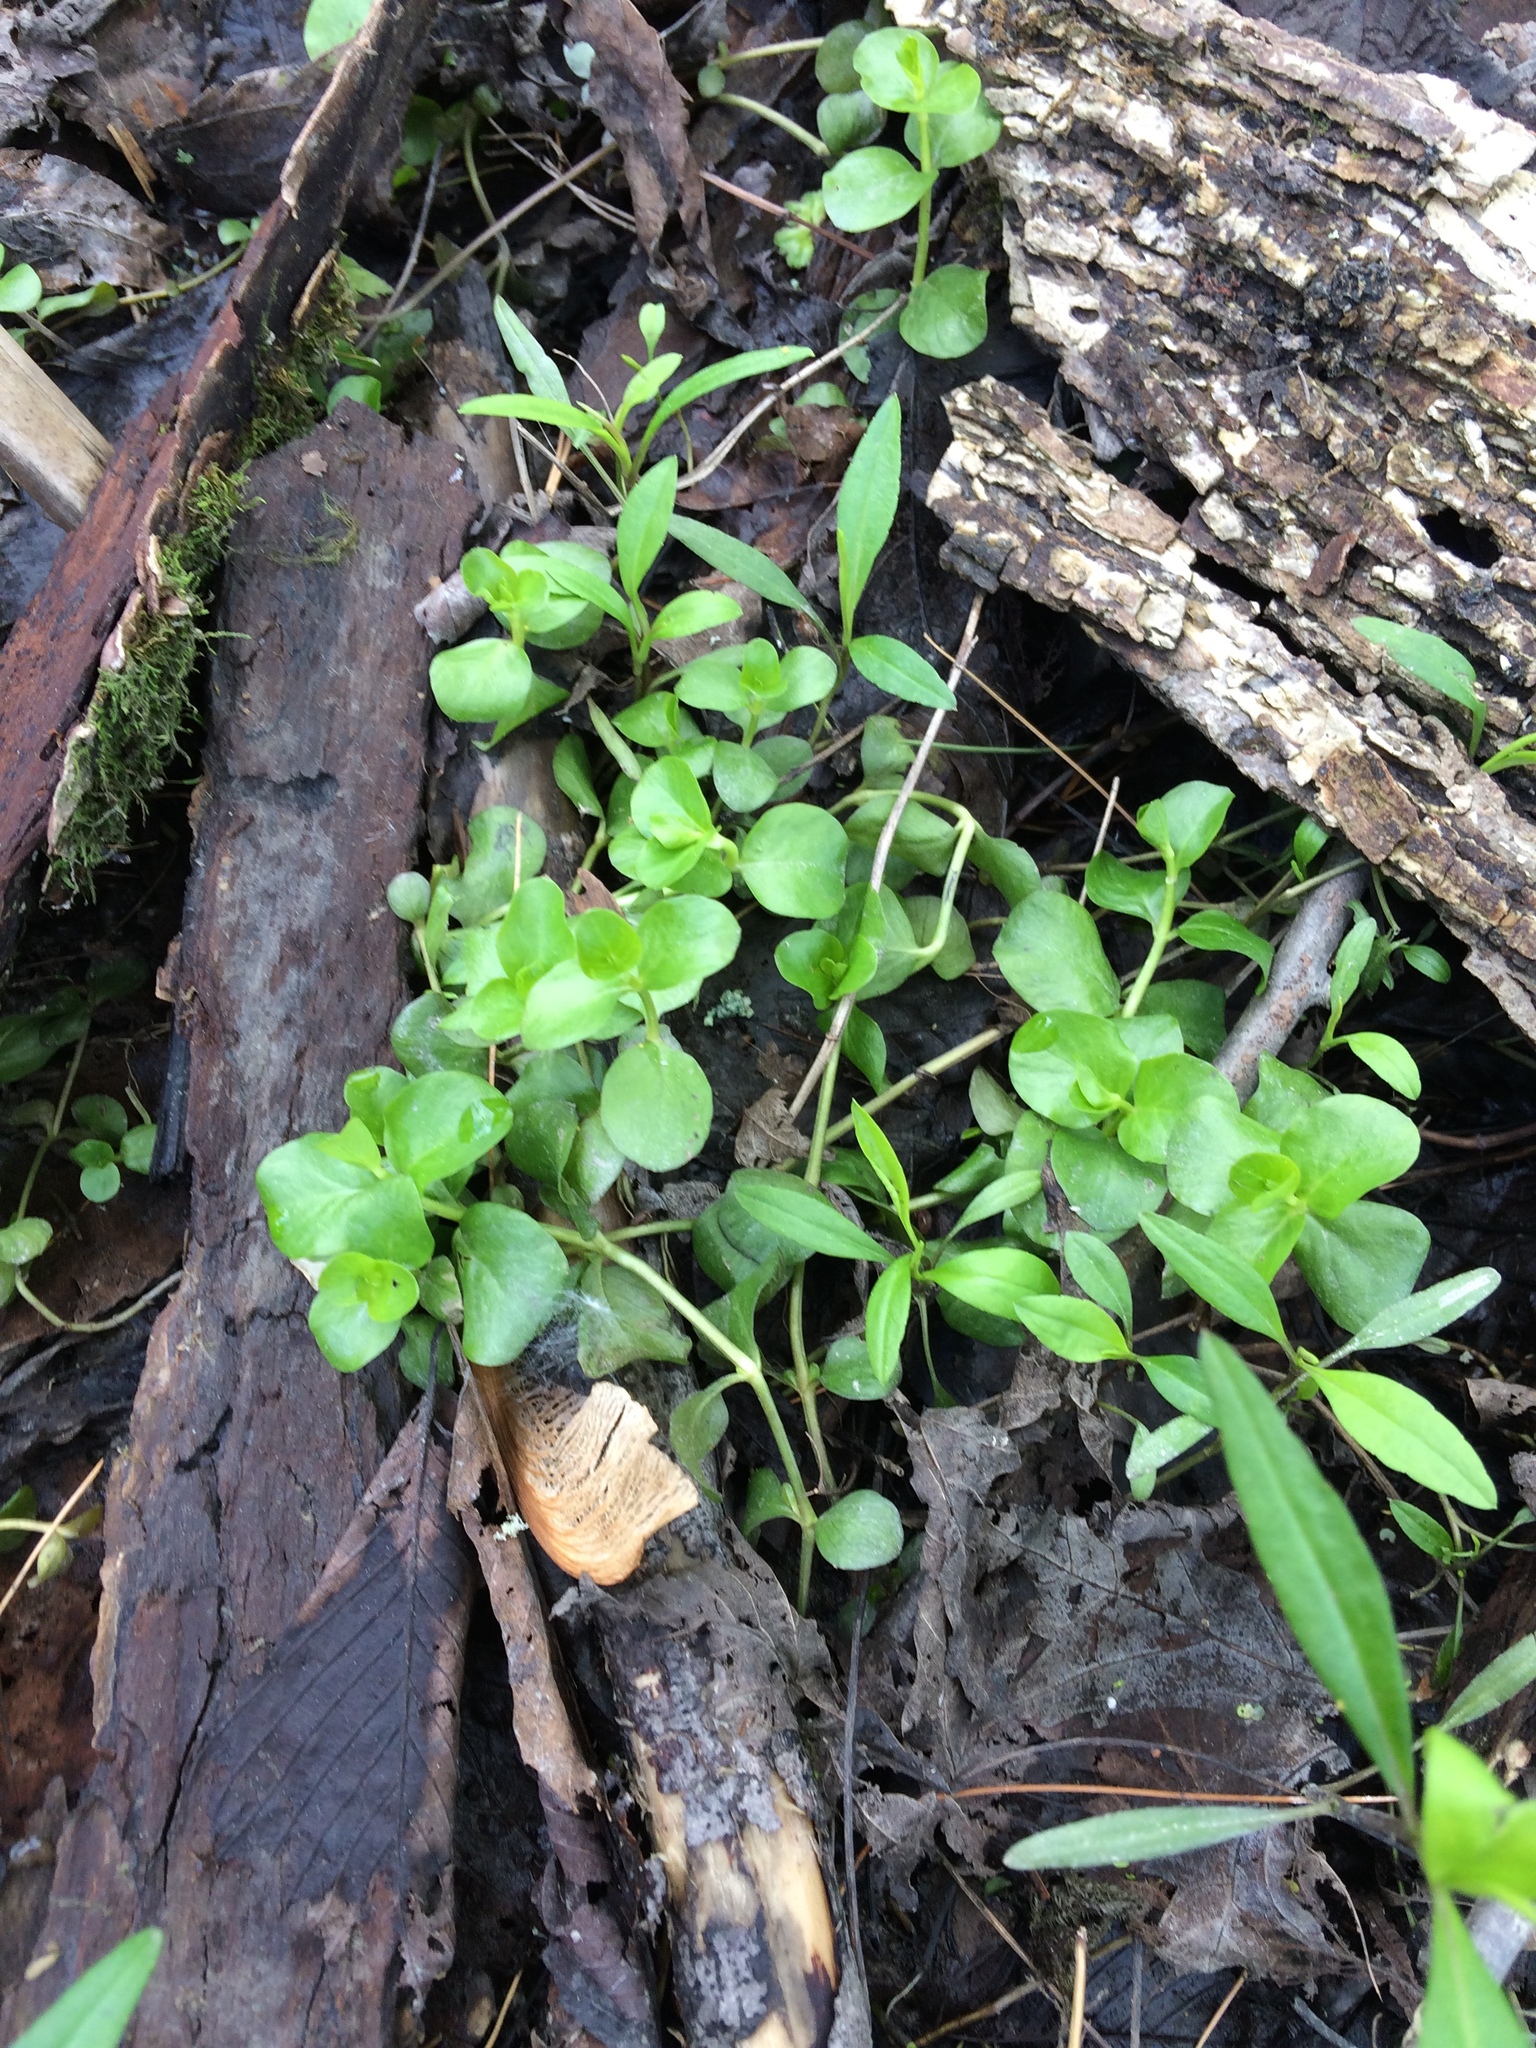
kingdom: Plantae
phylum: Tracheophyta
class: Magnoliopsida
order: Ericales
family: Primulaceae
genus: Lysimachia
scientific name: Lysimachia nummularia
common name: Moneywort
